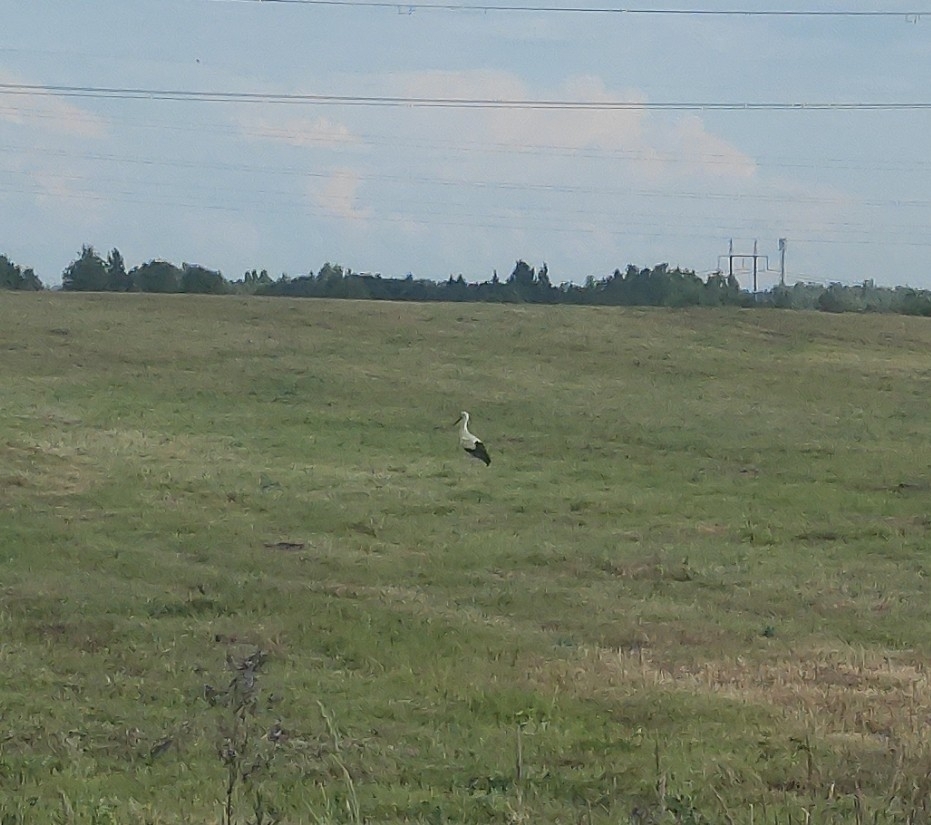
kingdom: Animalia
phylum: Chordata
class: Aves
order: Ciconiiformes
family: Ciconiidae
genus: Ciconia
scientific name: Ciconia ciconia
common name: White stork
